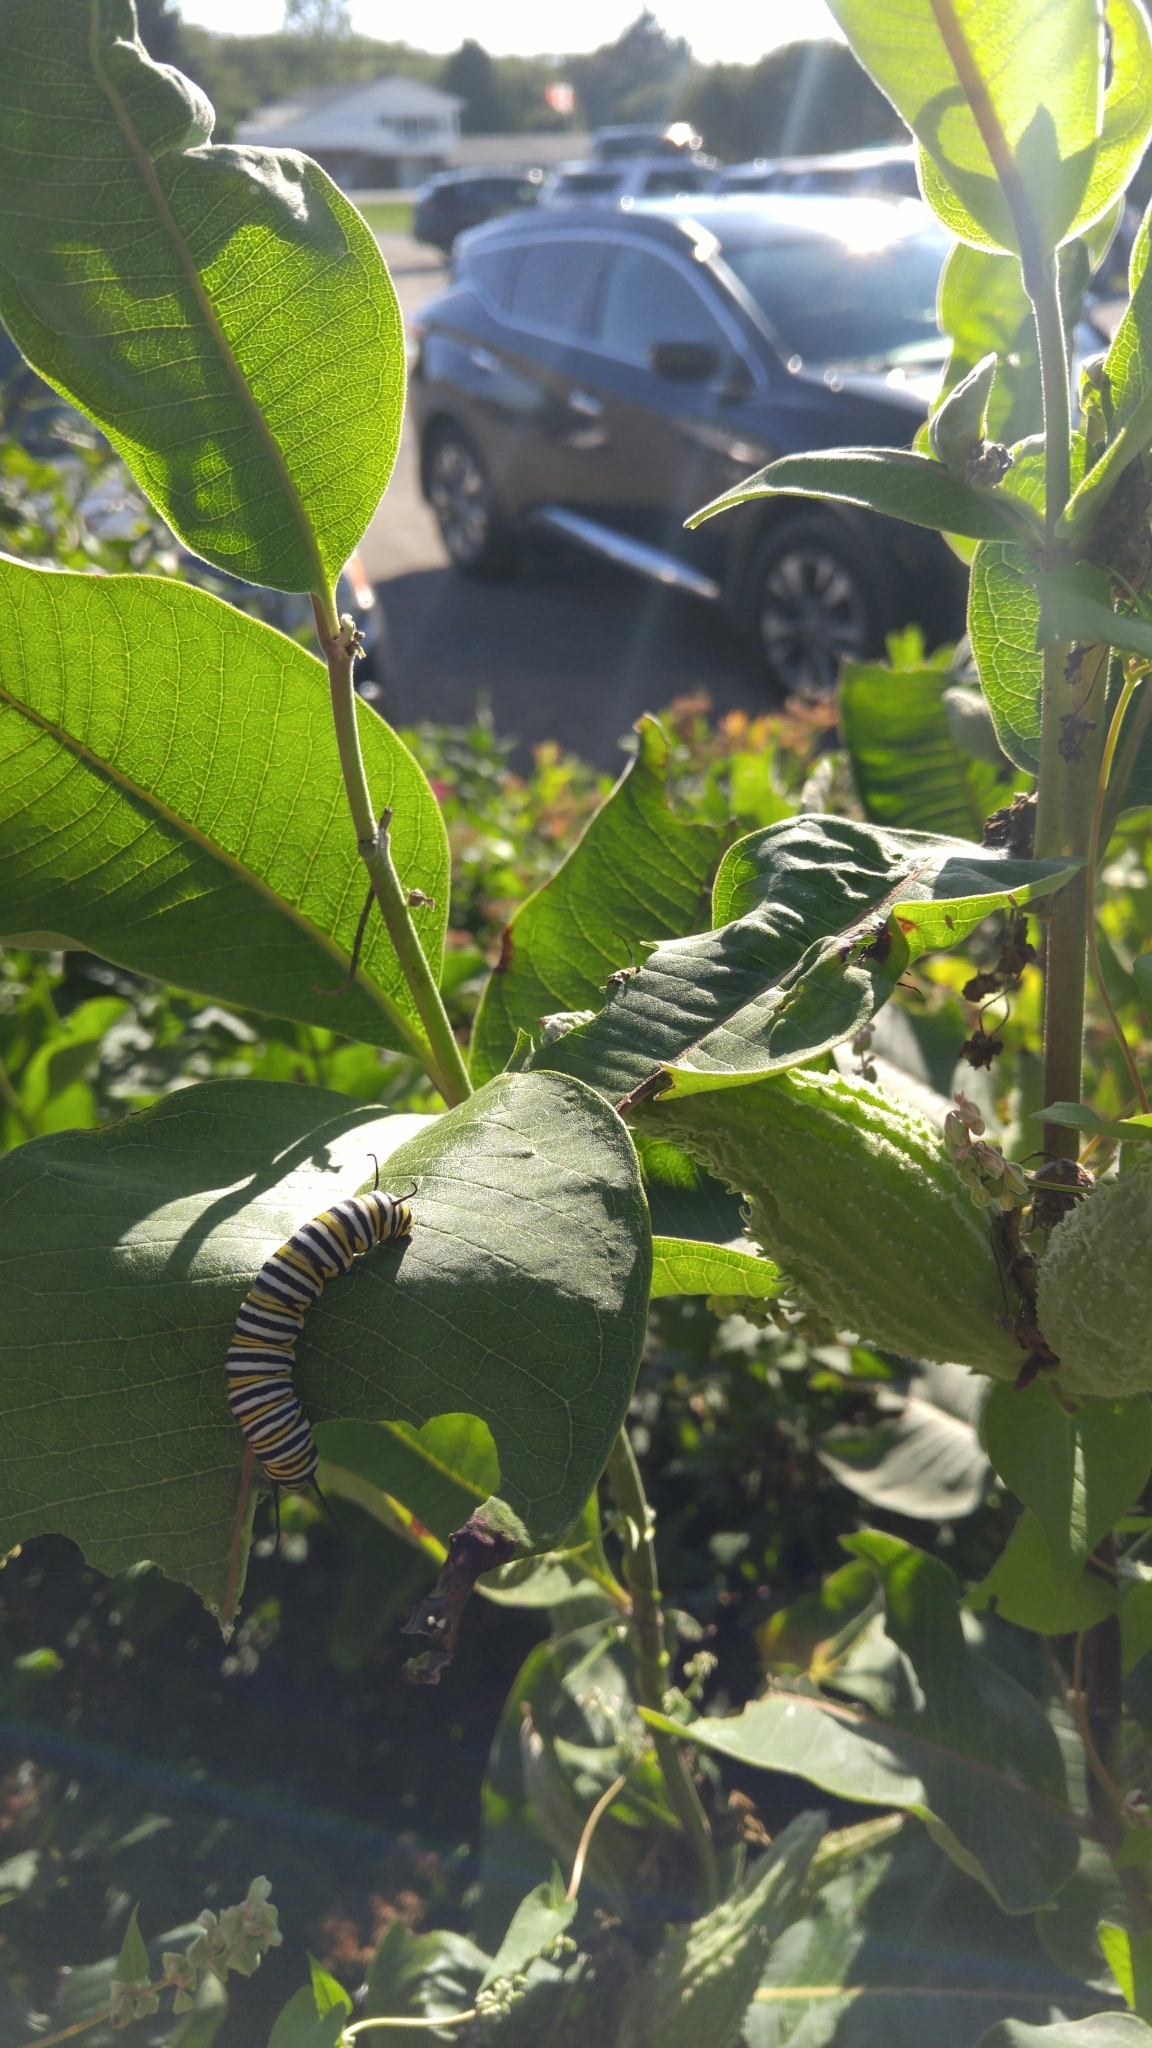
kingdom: Animalia
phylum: Arthropoda
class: Insecta
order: Lepidoptera
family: Nymphalidae
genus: Danaus
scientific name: Danaus plexippus
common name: Monarch
